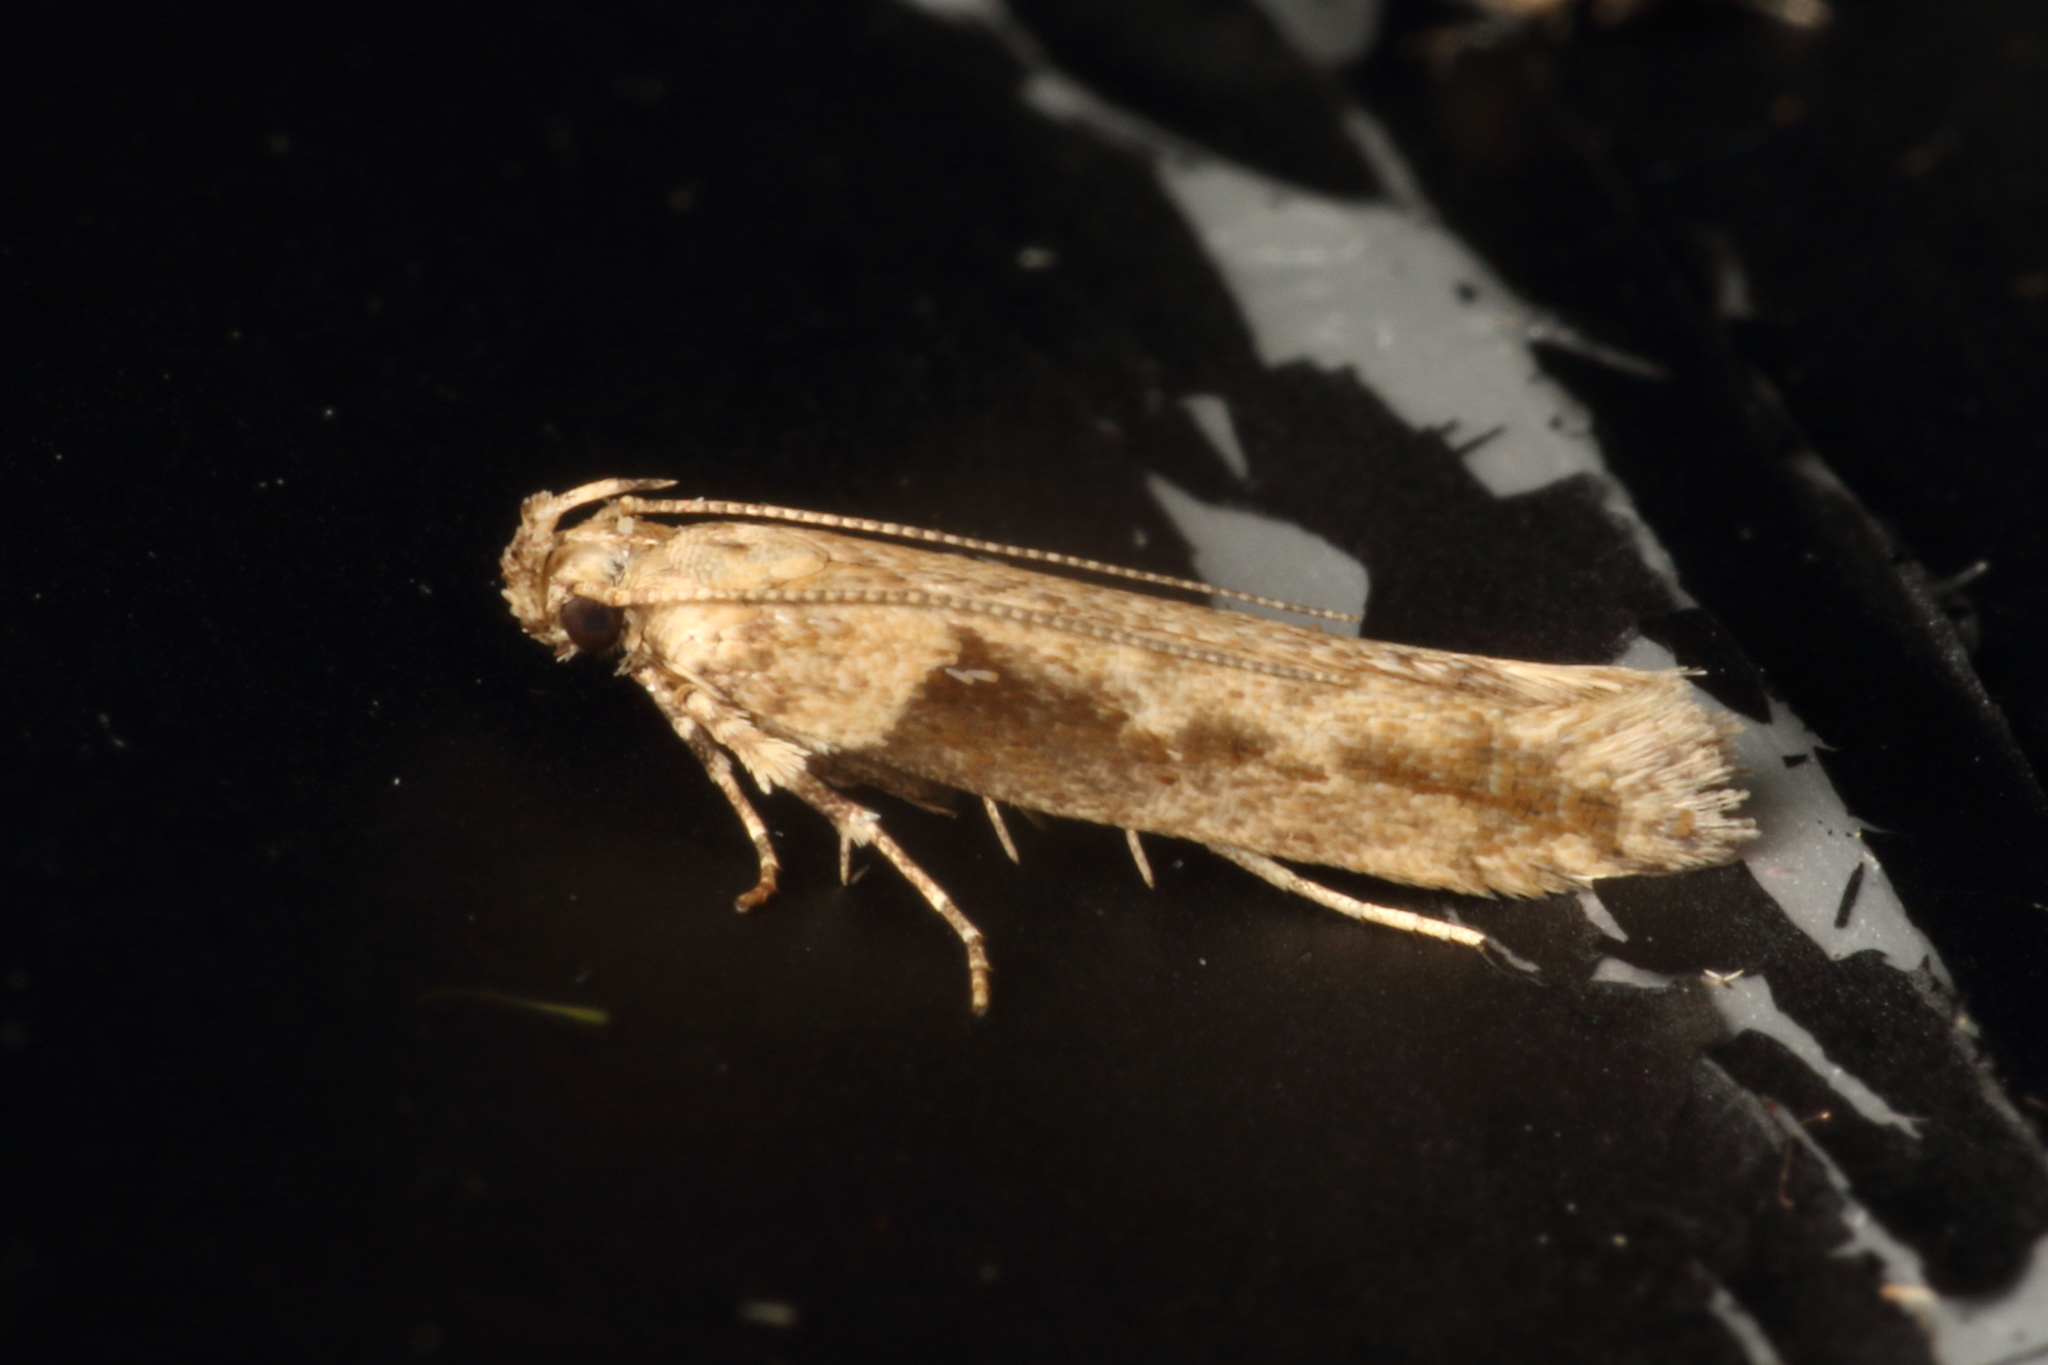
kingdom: Animalia
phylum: Arthropoda
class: Insecta
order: Lepidoptera
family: Gelechiidae
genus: Symmetrischema
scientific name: Symmetrischema tangolias
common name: Moth
